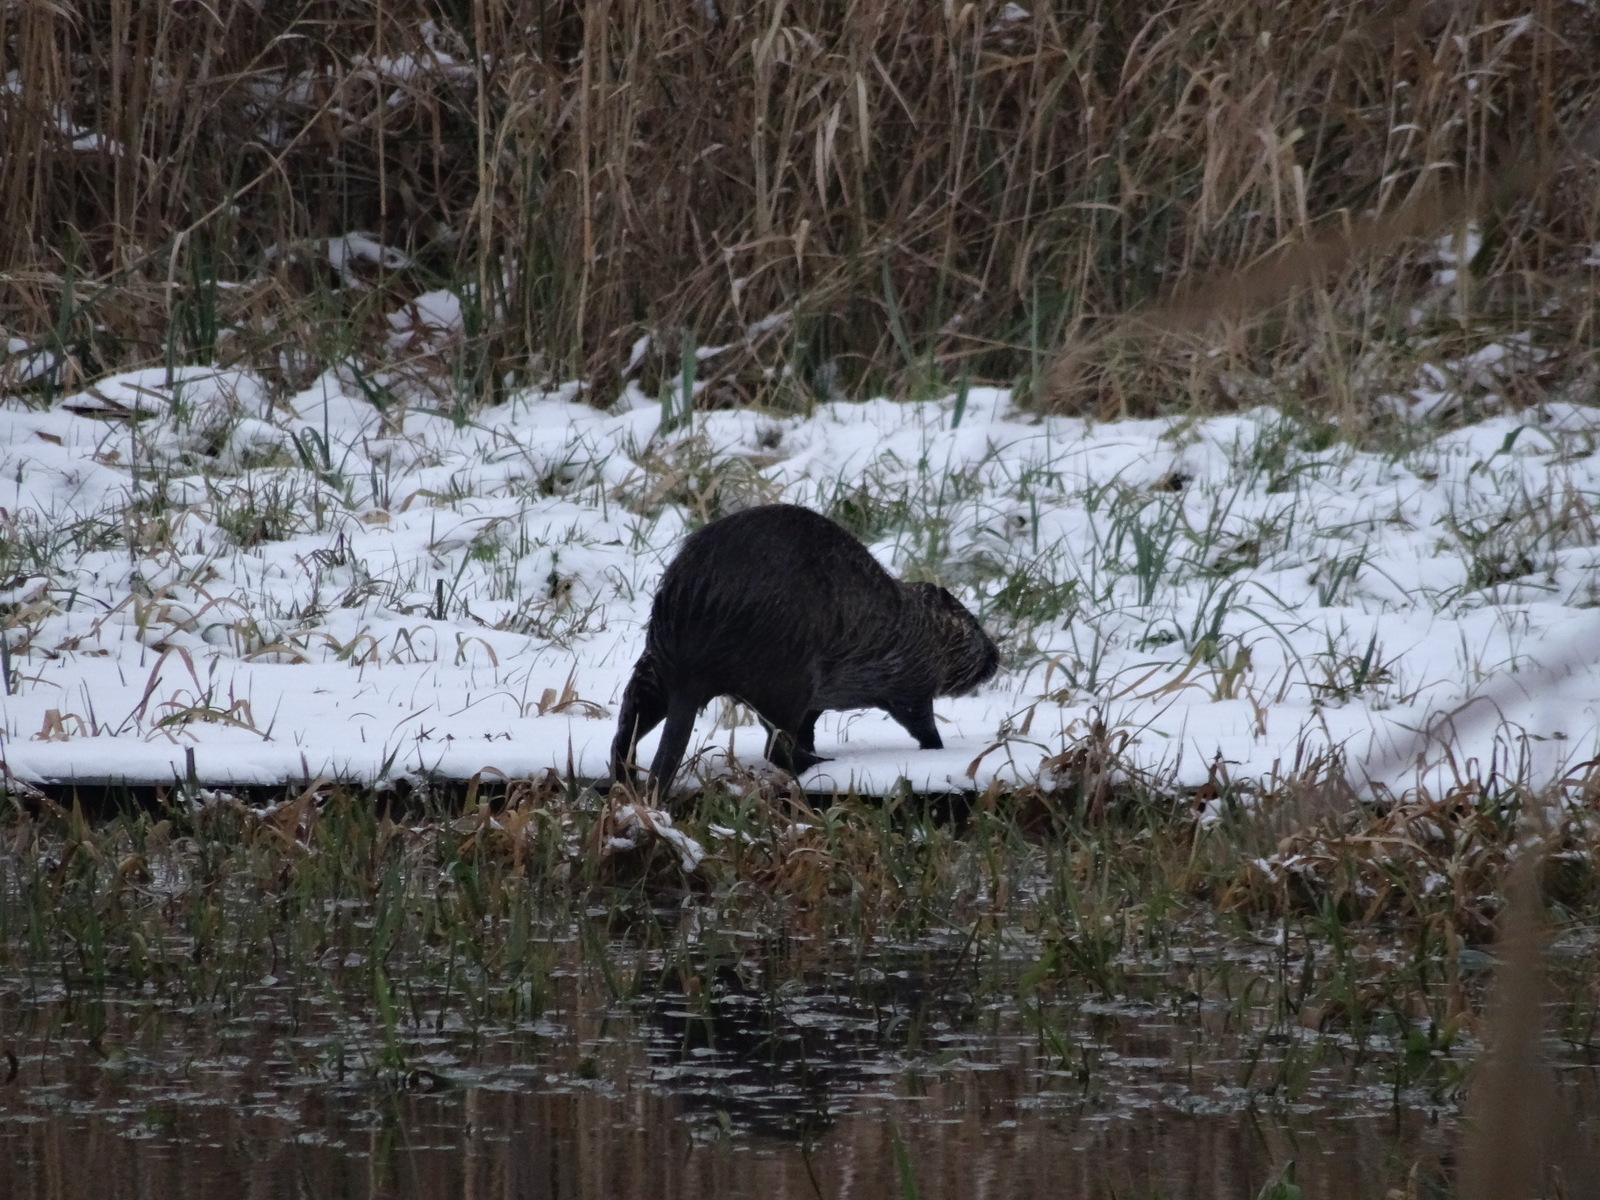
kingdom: Animalia
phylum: Chordata
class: Mammalia
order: Rodentia
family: Myocastoridae
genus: Myocastor
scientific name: Myocastor coypus
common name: Coypu
